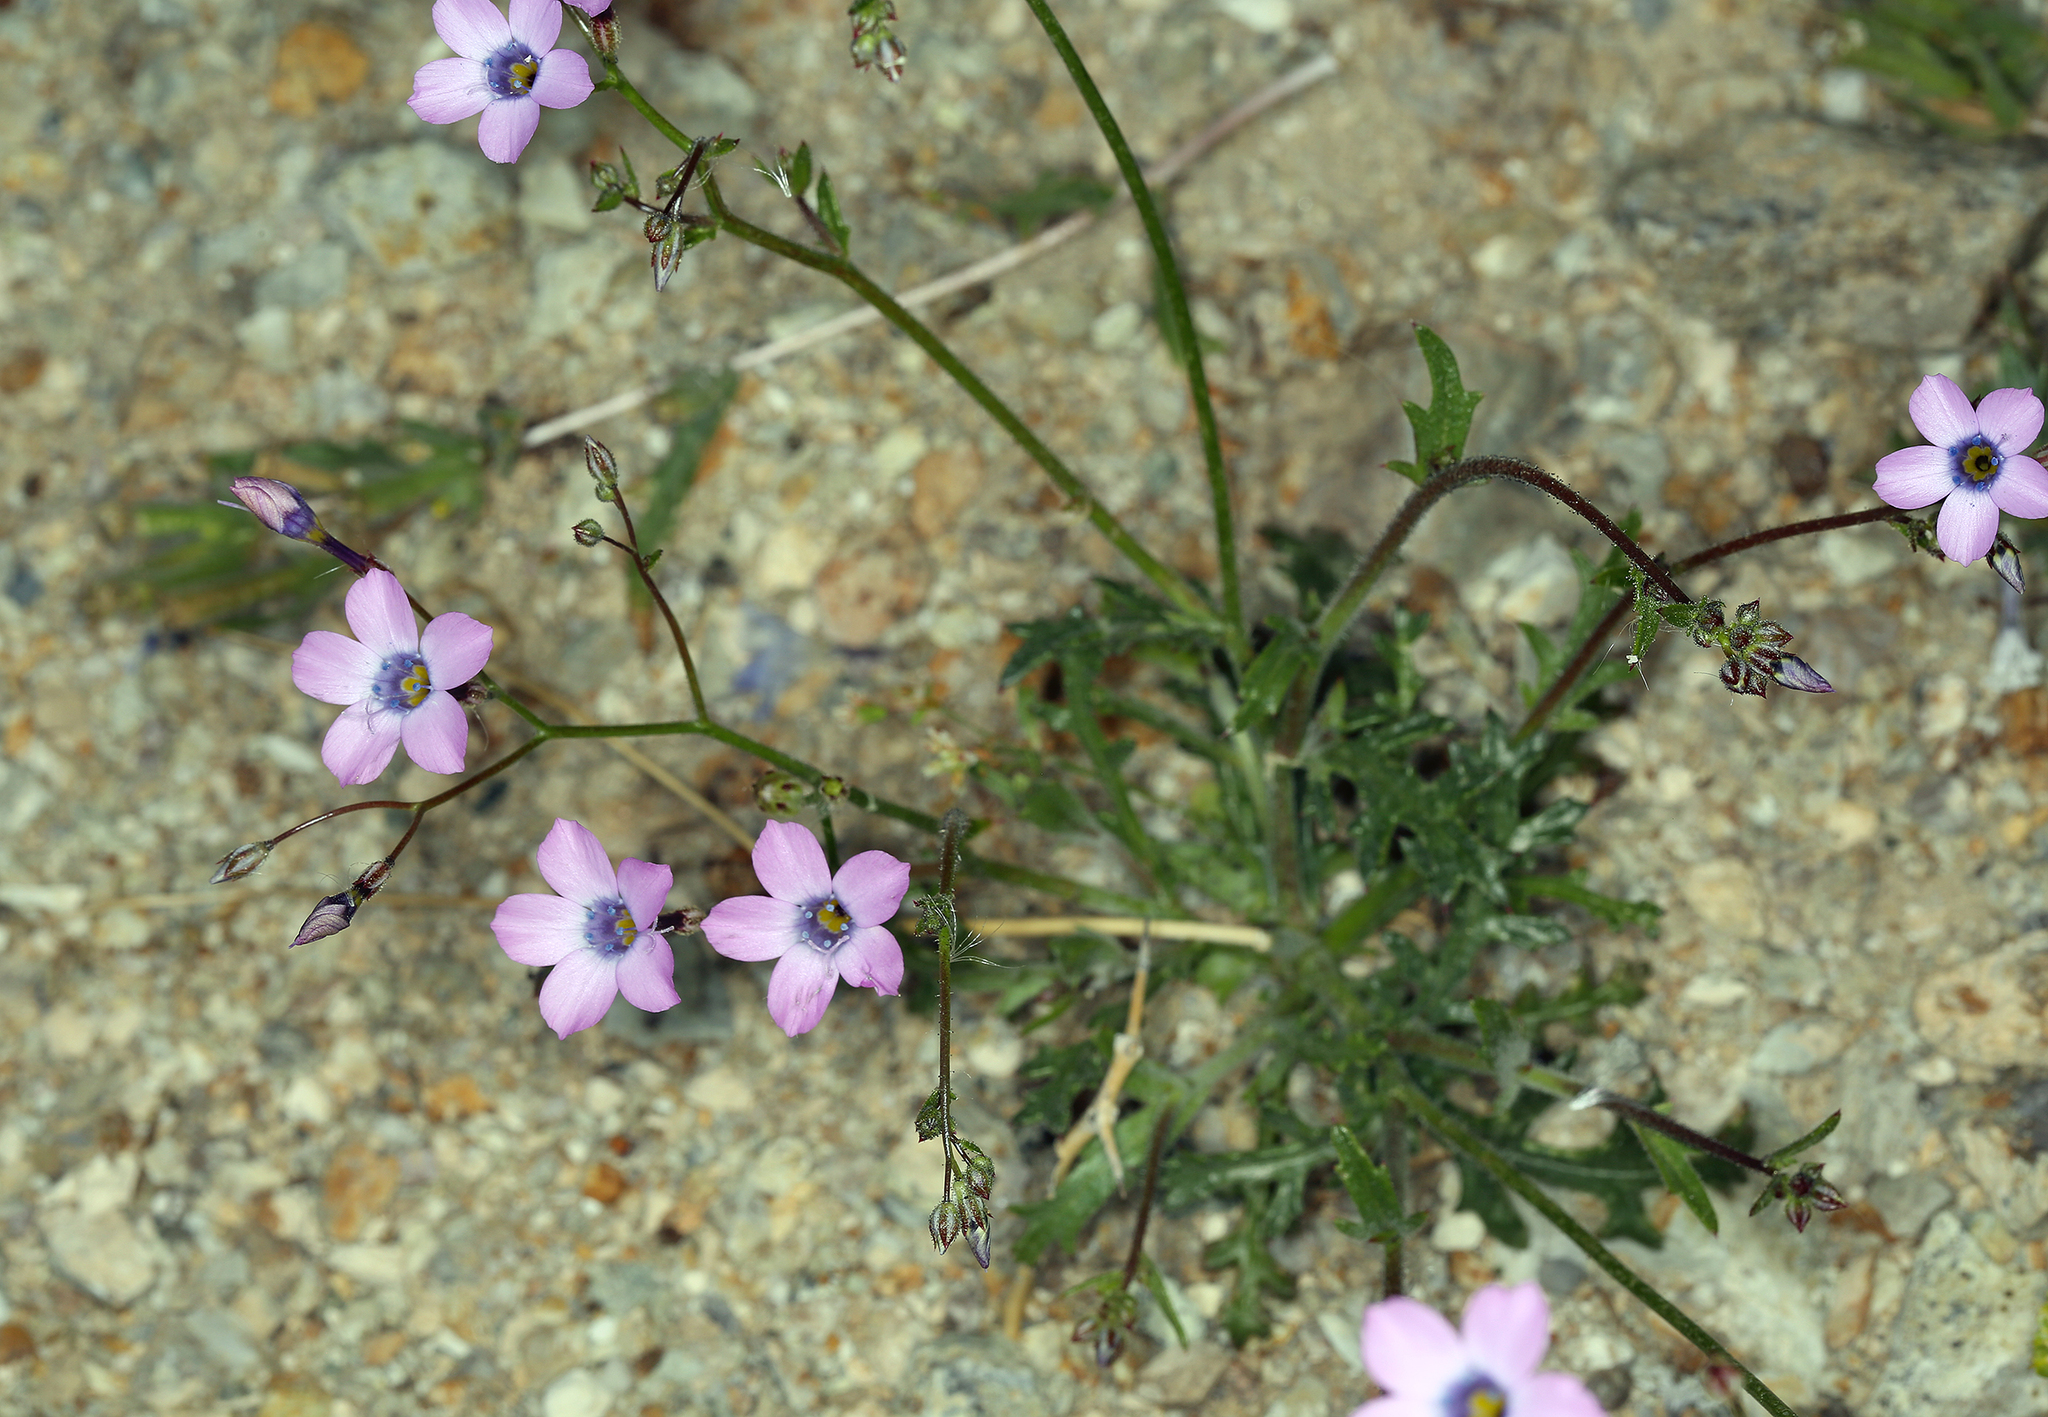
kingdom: Plantae
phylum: Tracheophyta
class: Magnoliopsida
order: Ericales
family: Polemoniaceae
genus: Gilia
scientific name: Gilia cana
